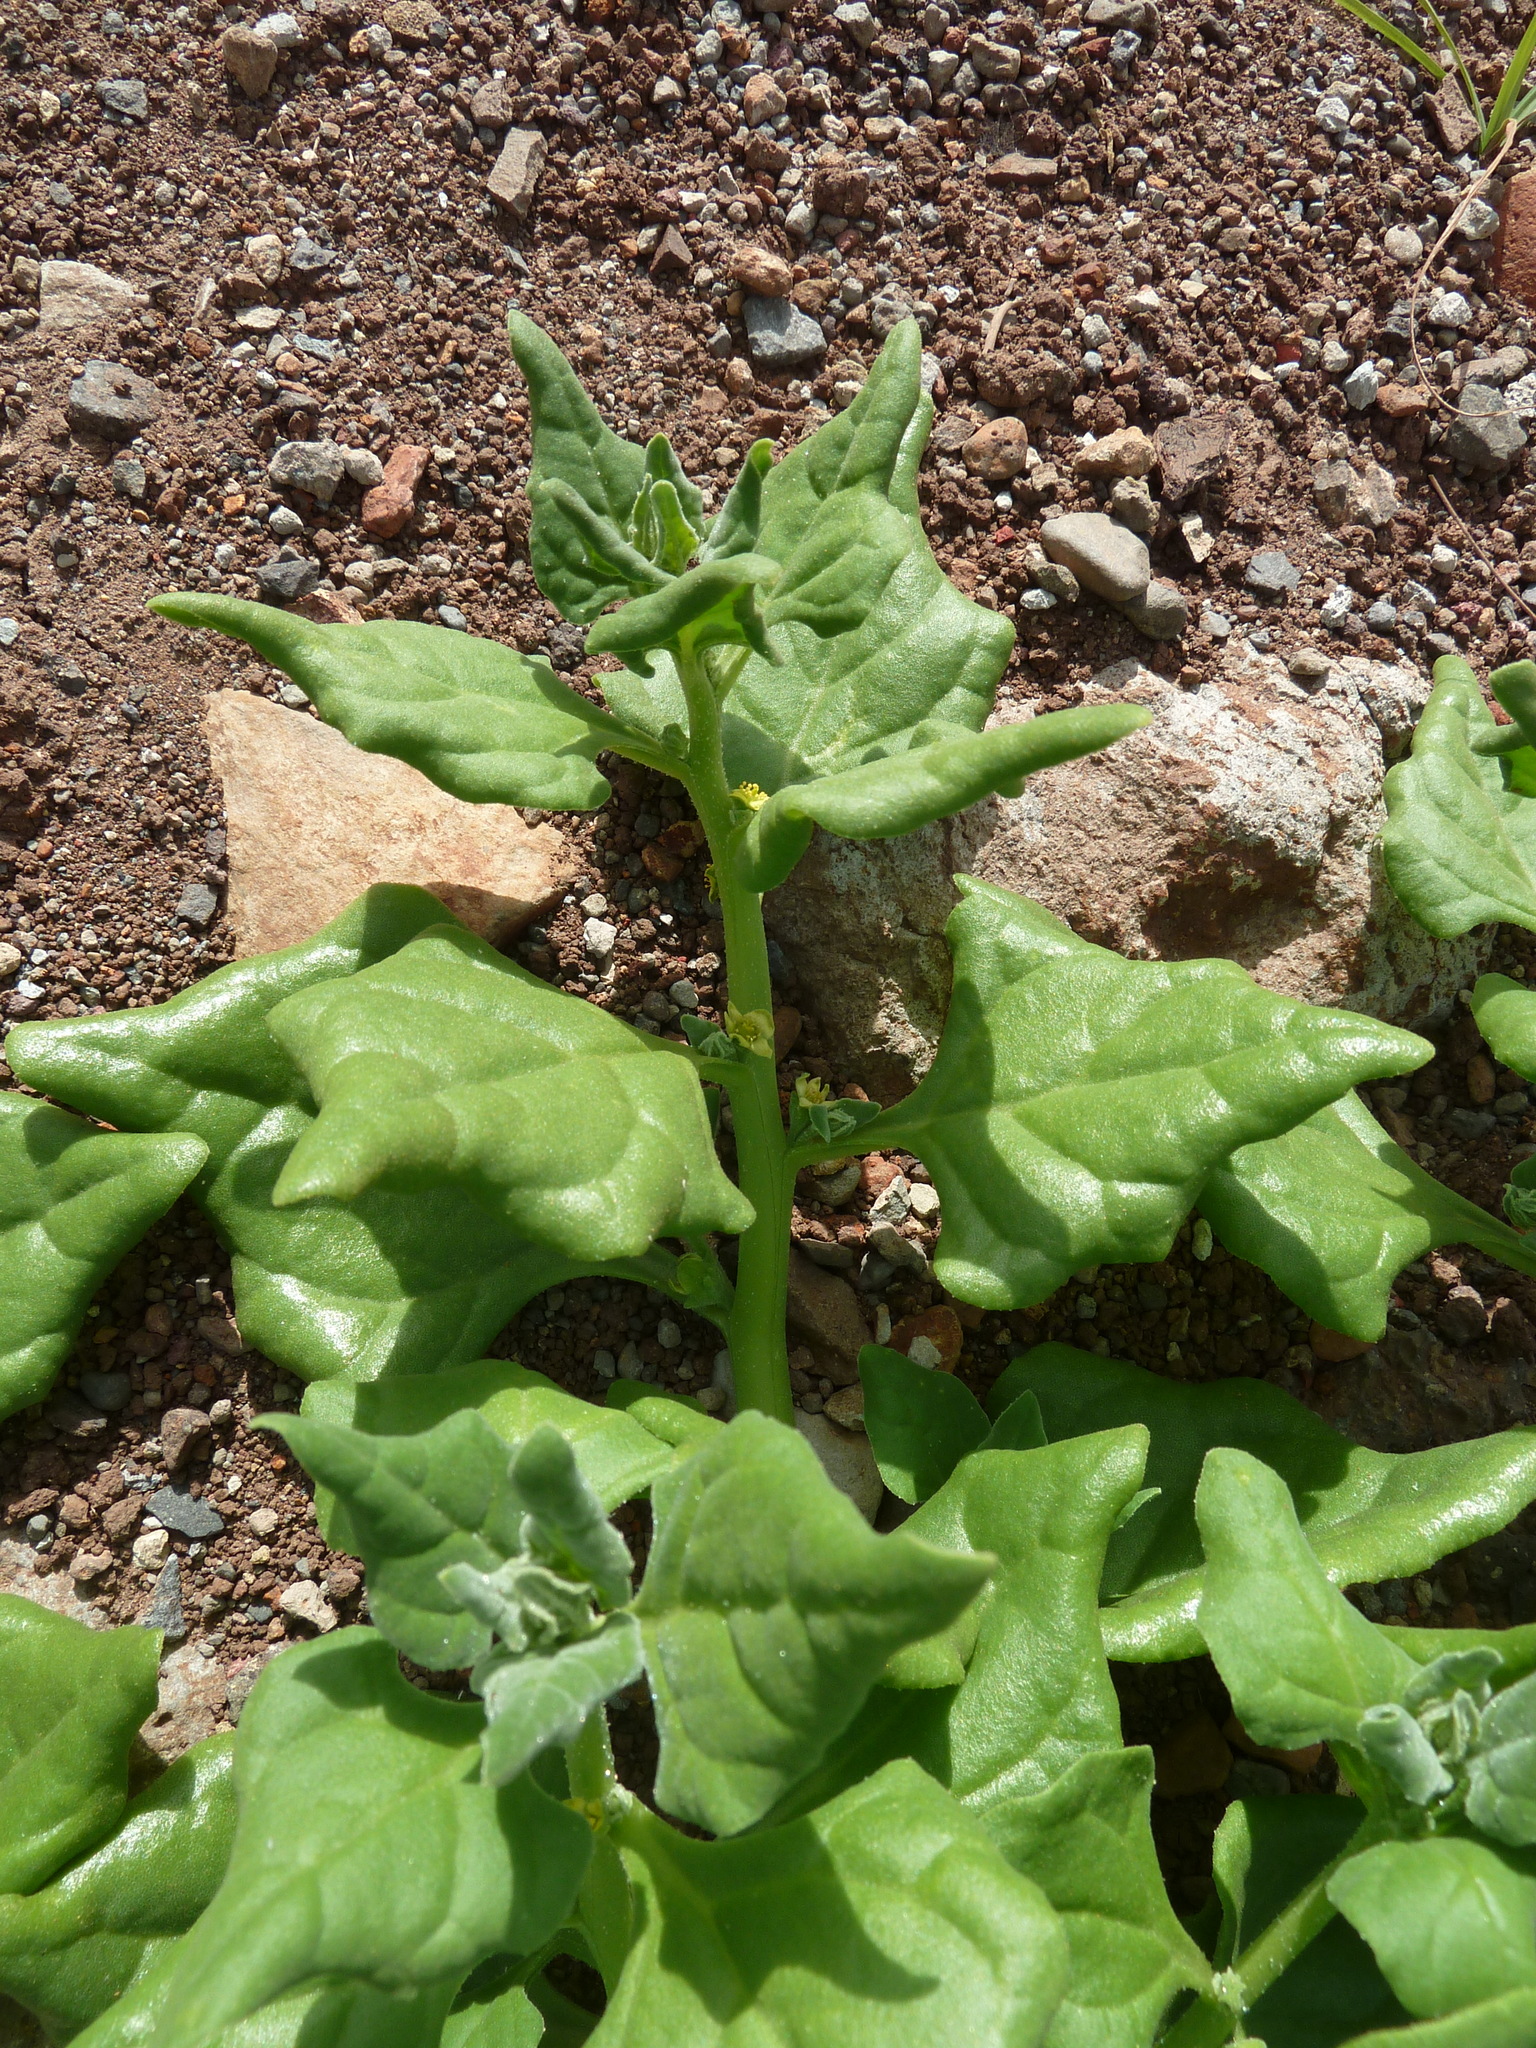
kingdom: Plantae
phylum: Tracheophyta
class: Magnoliopsida
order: Caryophyllales
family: Aizoaceae
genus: Tetragonia
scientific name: Tetragonia tetragonoides
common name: New zealand-spinach
